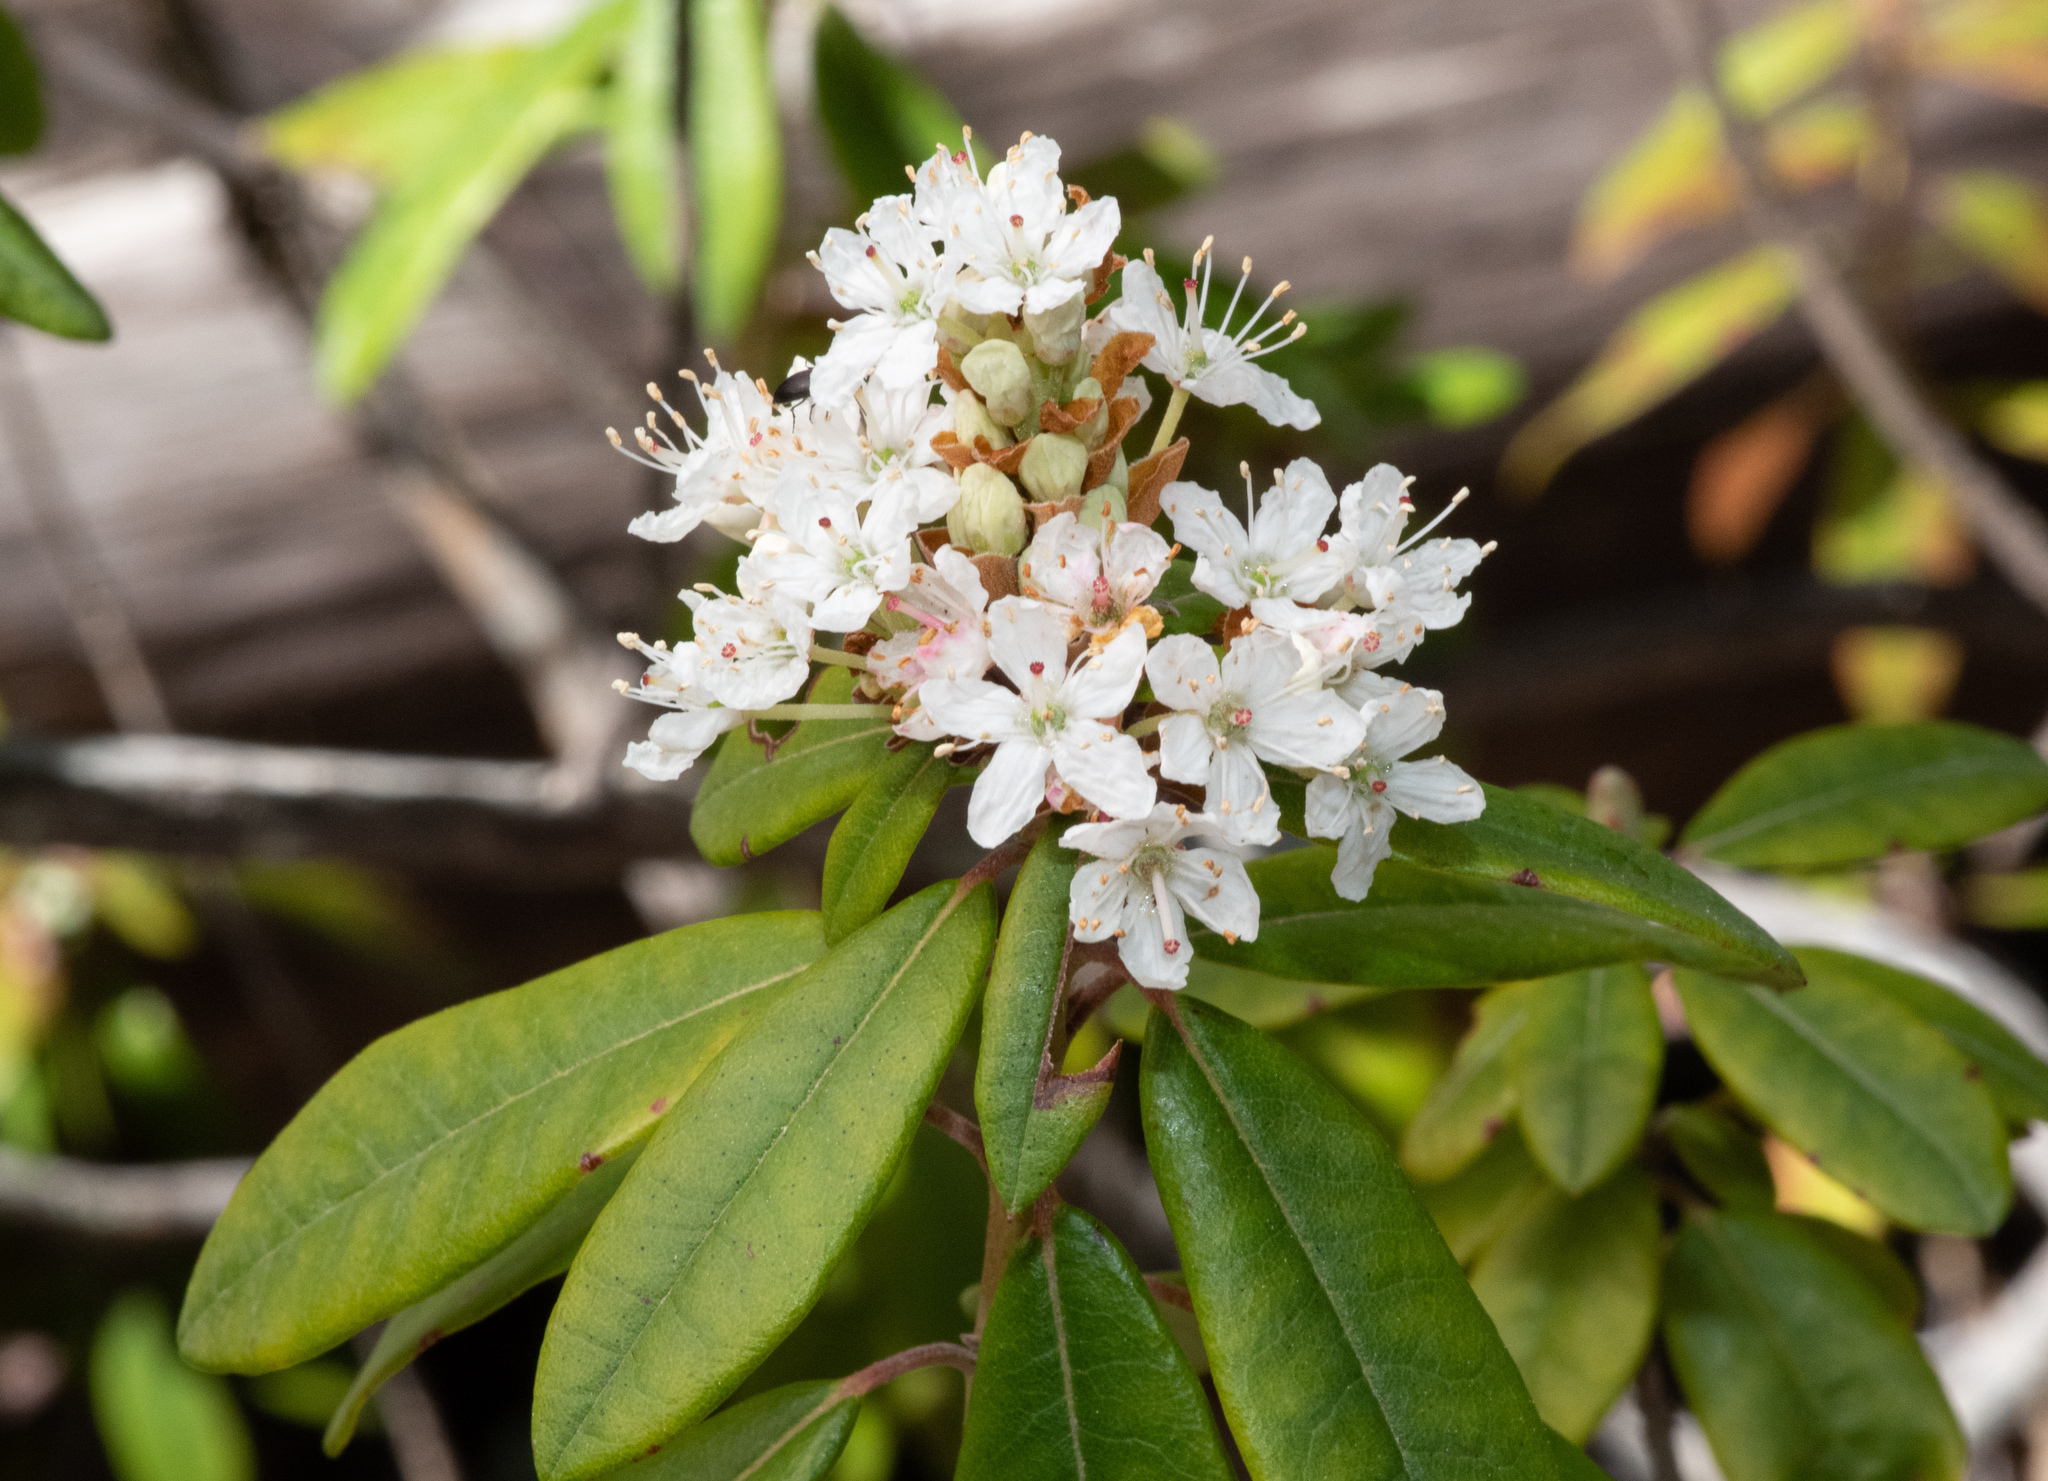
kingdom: Plantae
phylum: Tracheophyta
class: Magnoliopsida
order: Ericales
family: Ericaceae
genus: Rhododendron
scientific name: Rhododendron columbianum
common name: Western labrador tea
